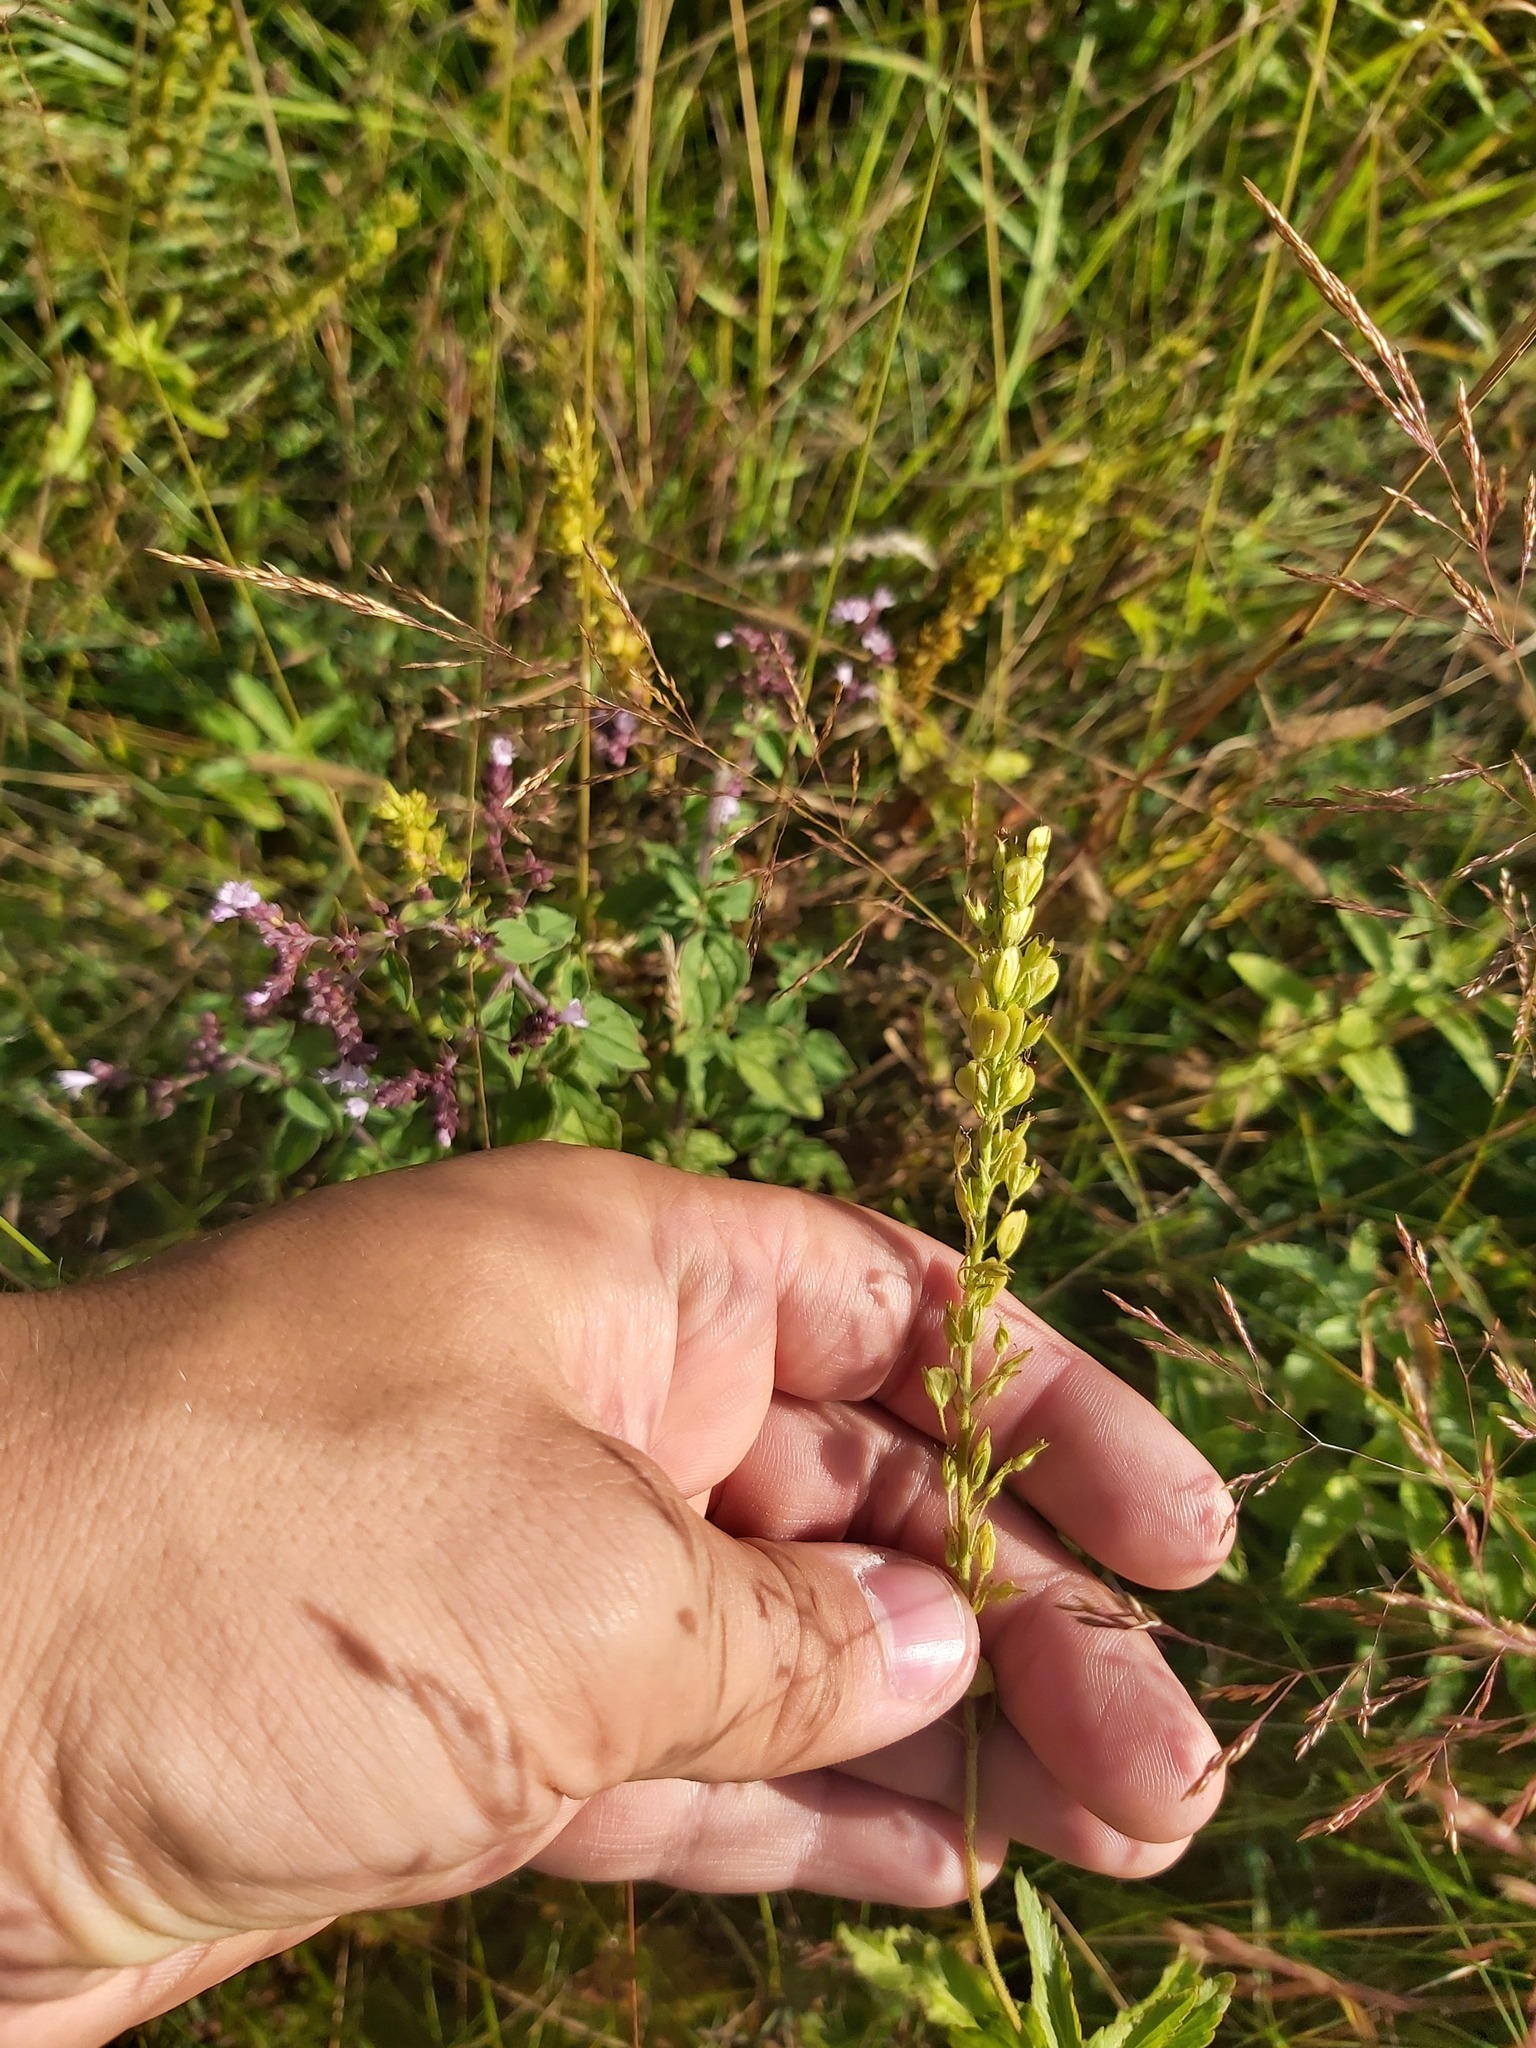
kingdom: Plantae
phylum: Tracheophyta
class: Magnoliopsida
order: Lamiales
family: Plantaginaceae
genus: Veronica
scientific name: Veronica teucrium
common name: Large speedwell
